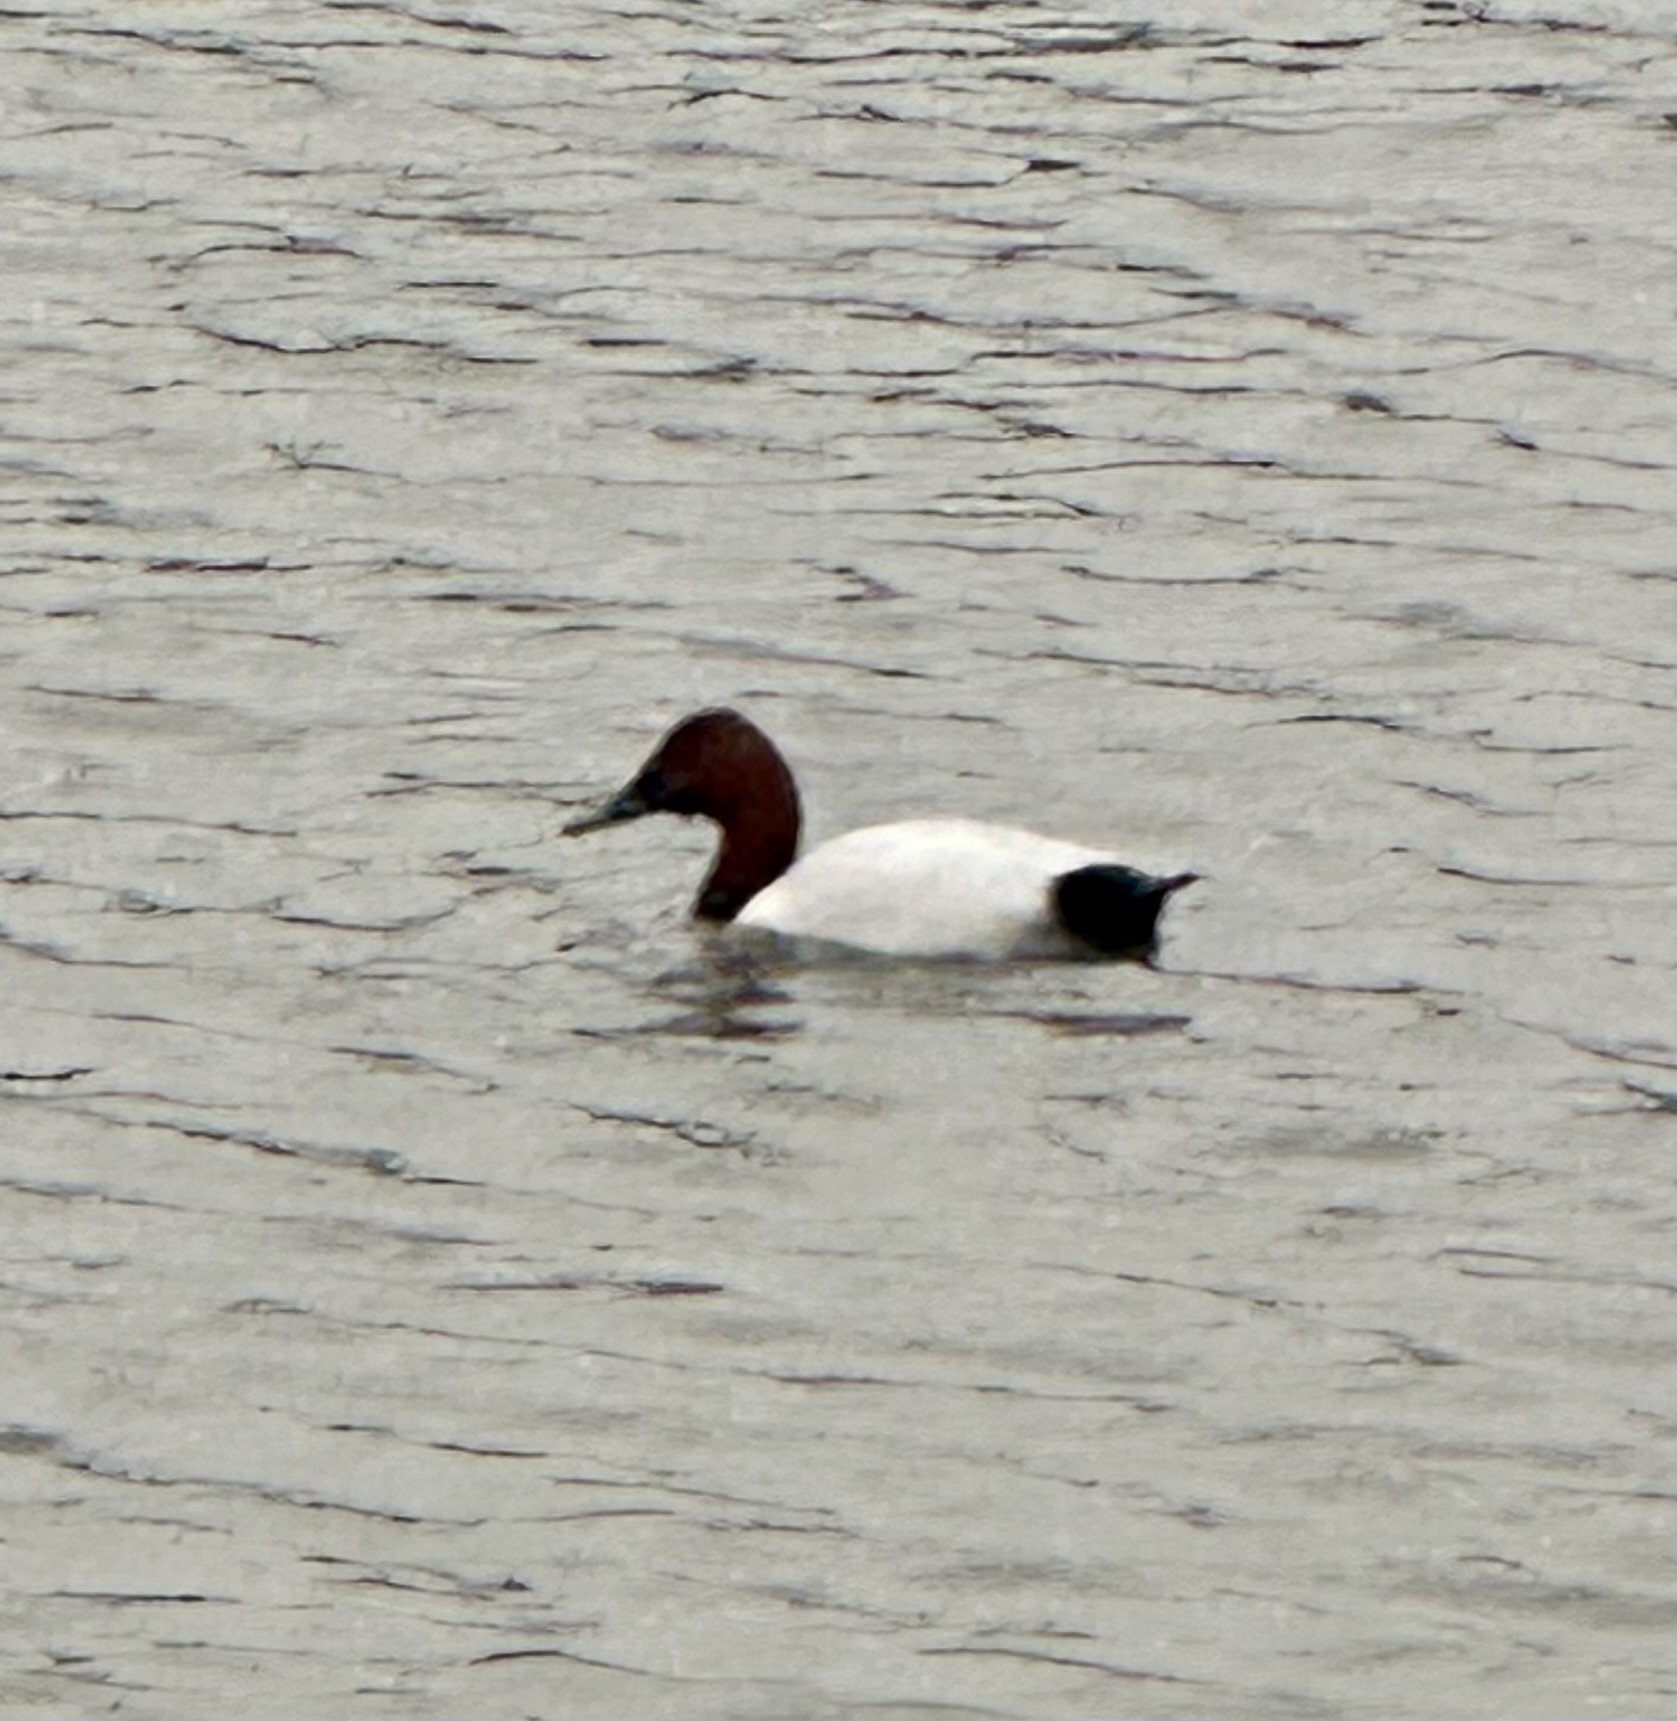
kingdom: Animalia
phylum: Chordata
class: Aves
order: Anseriformes
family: Anatidae
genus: Aythya
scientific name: Aythya valisineria
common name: Canvasback
